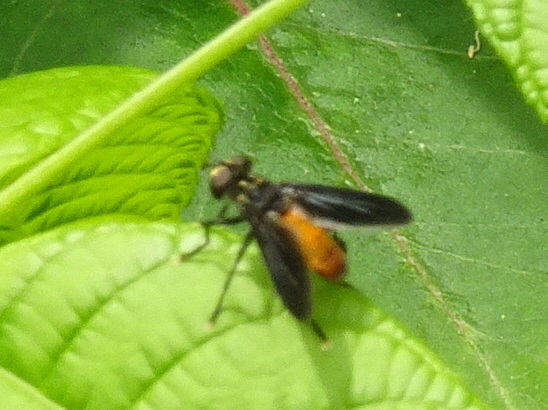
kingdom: Animalia
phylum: Arthropoda
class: Insecta
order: Diptera
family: Tachinidae
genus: Trichopoda
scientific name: Trichopoda pennipes
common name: Tachinid fly
